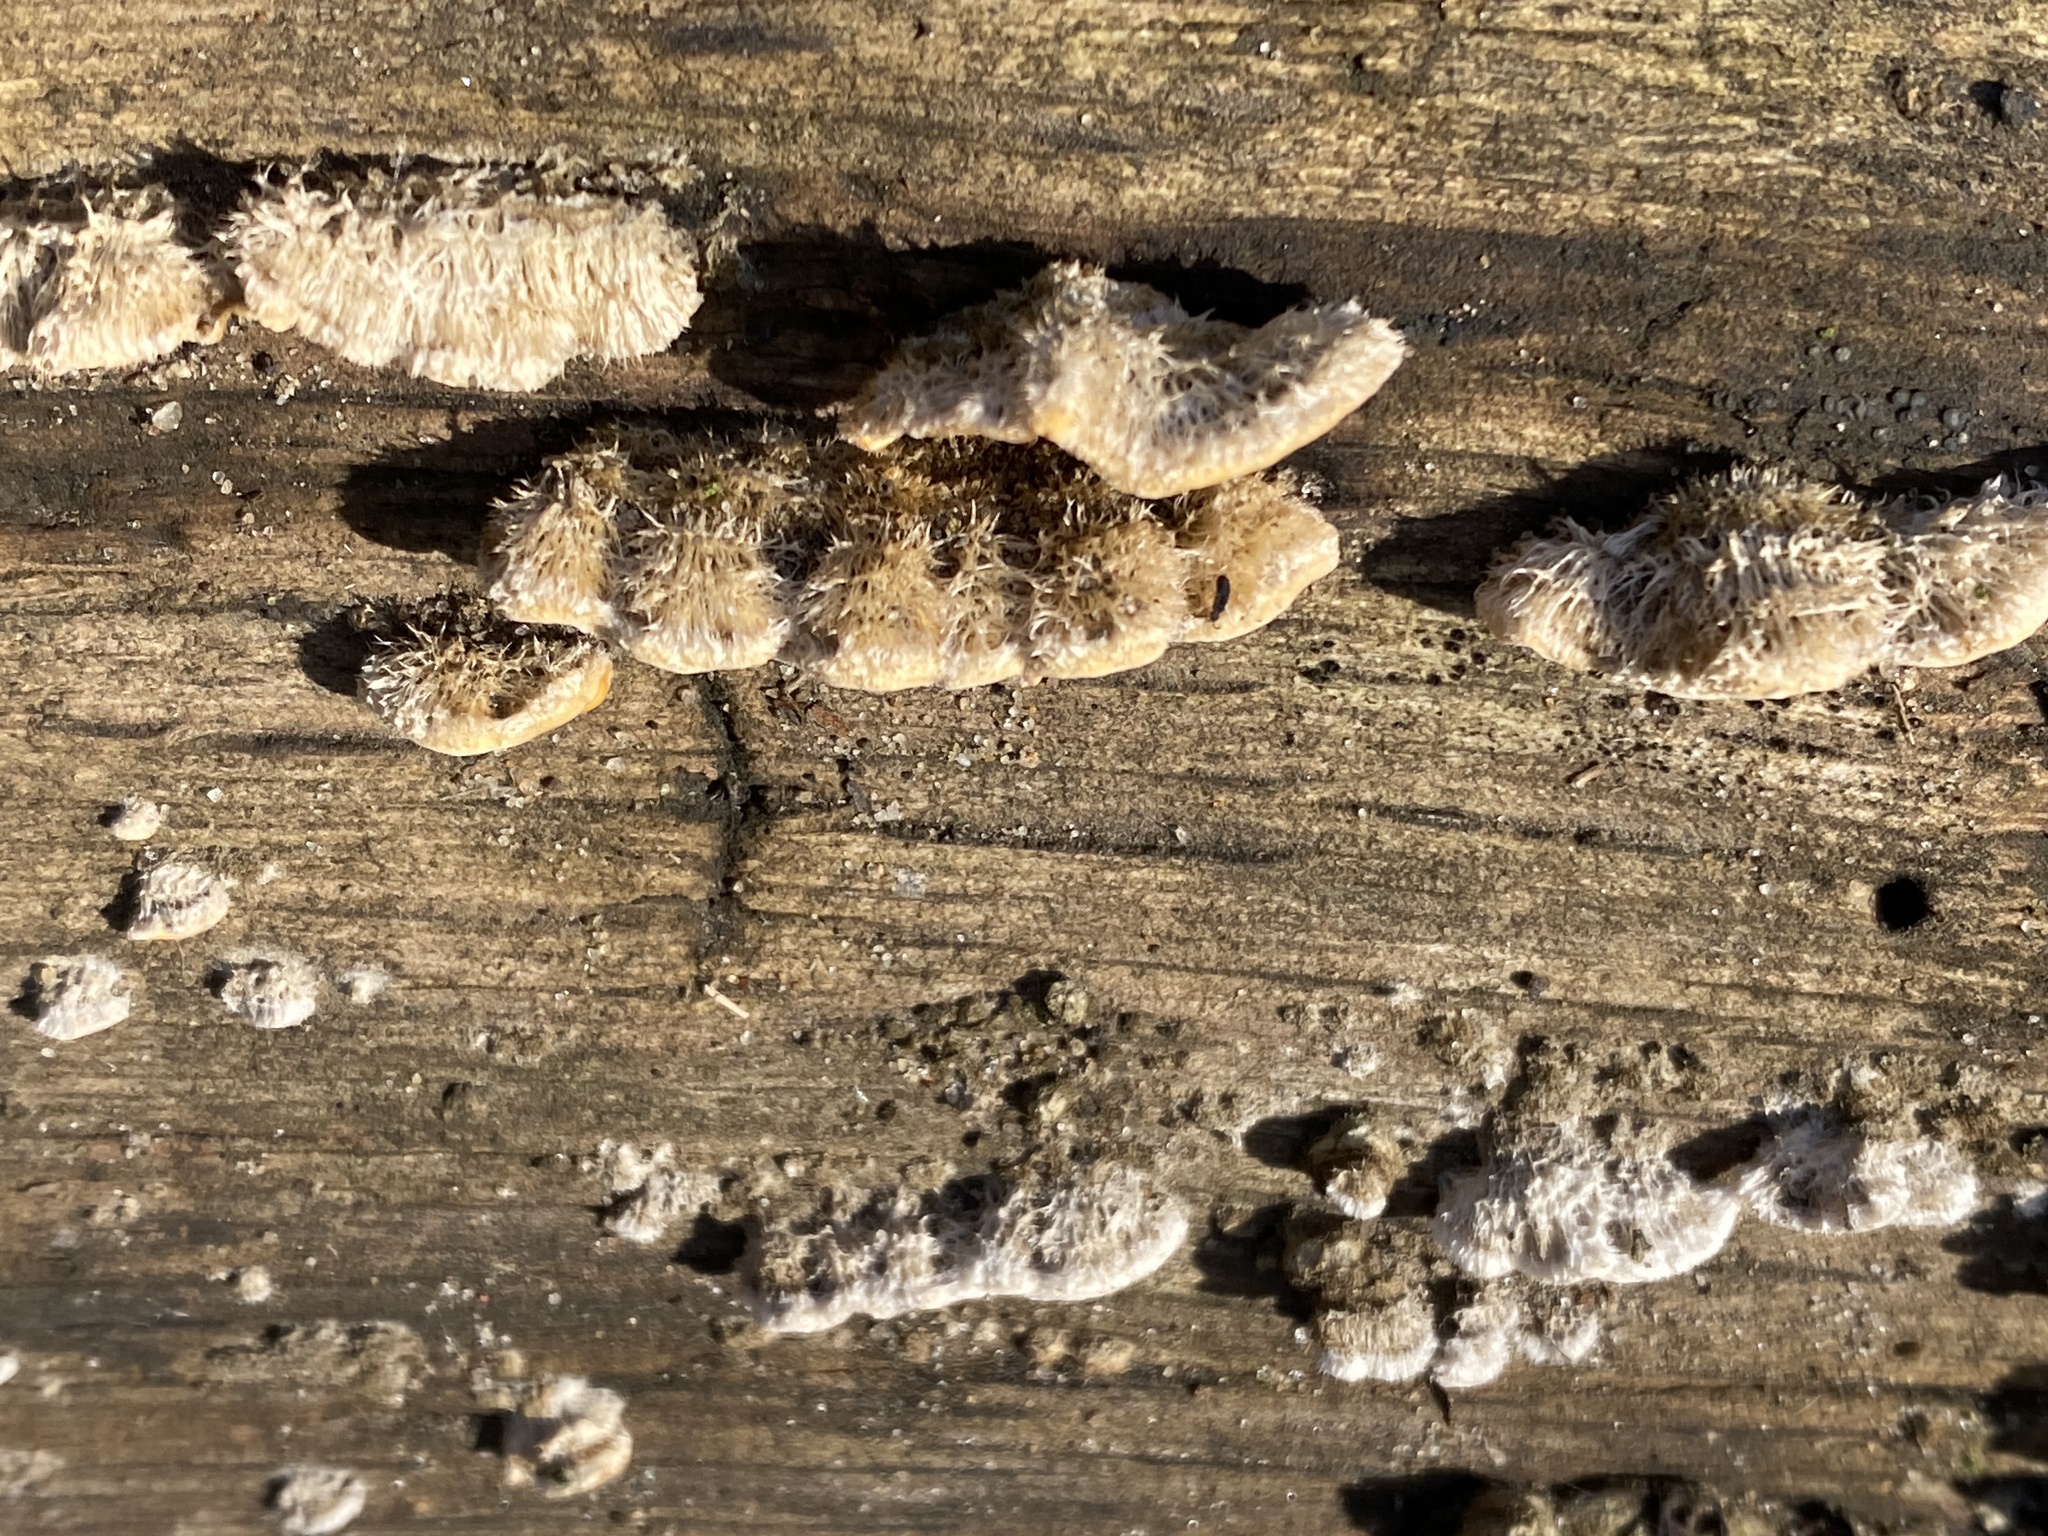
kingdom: Fungi
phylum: Basidiomycota
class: Agaricomycetes
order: Russulales
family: Stereaceae
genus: Stereum
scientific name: Stereum hirsutum
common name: Hairy curtain crust
